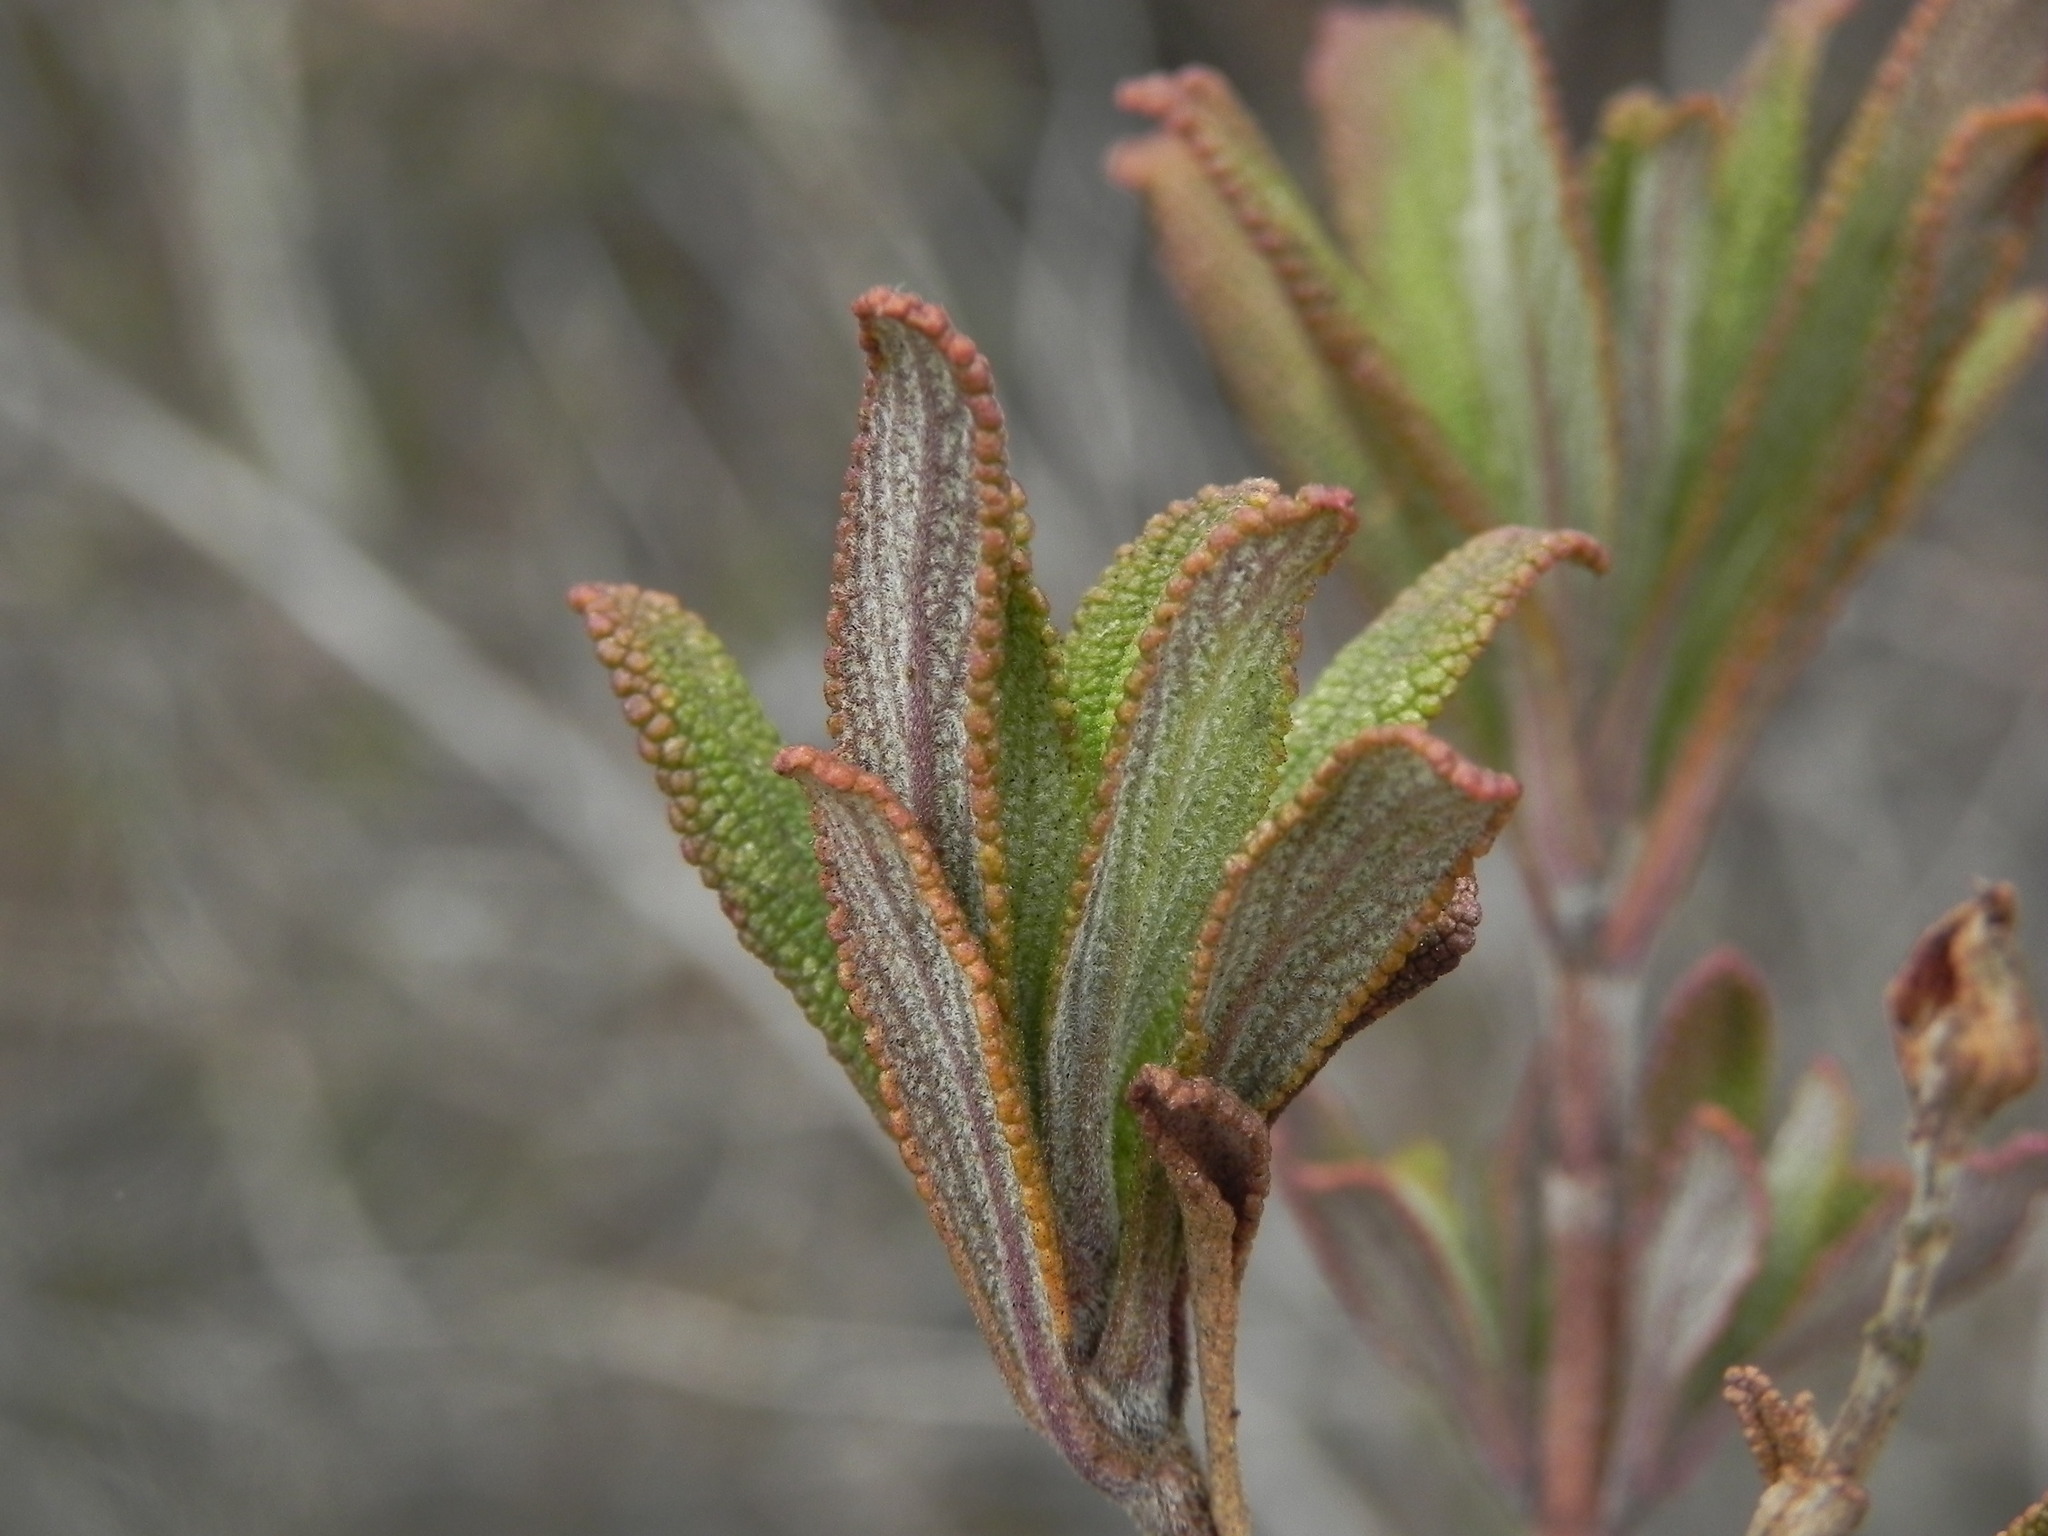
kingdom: Plantae
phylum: Tracheophyta
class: Magnoliopsida
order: Lamiales
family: Lamiaceae
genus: Salvia
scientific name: Salvia mellifera
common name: Black sage
